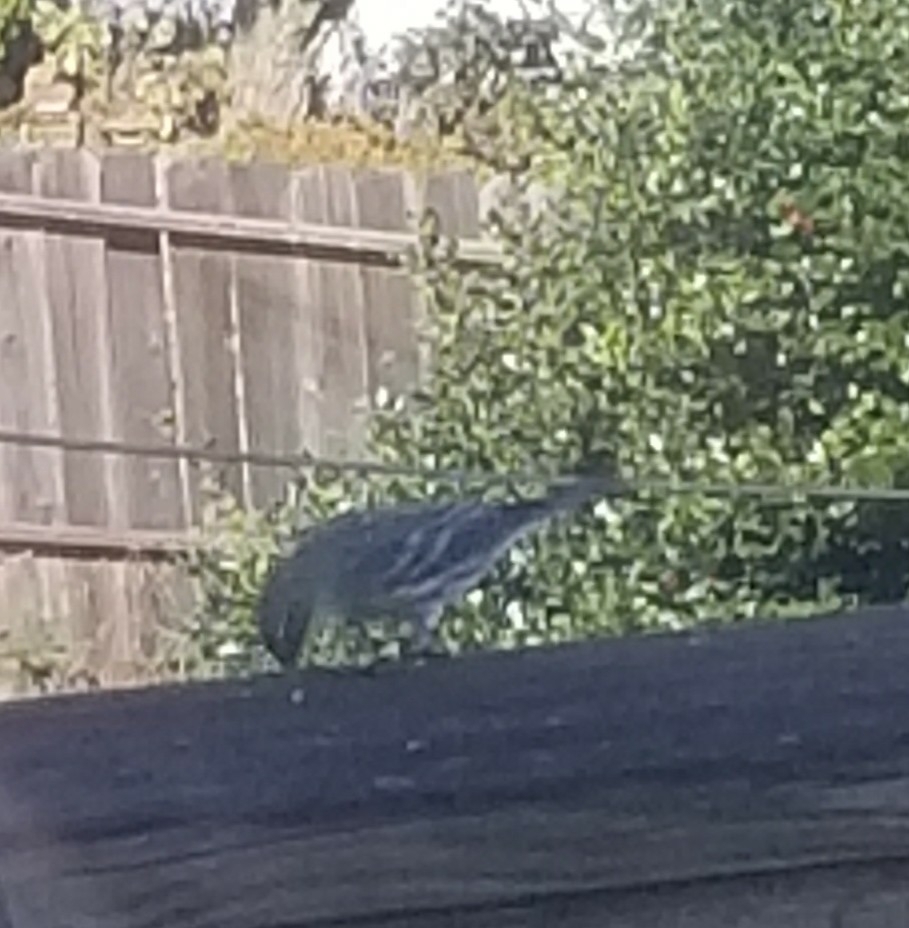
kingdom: Animalia
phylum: Chordata
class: Aves
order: Passeriformes
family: Parulidae
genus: Setophaga
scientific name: Setophaga coronata
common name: Myrtle warbler
